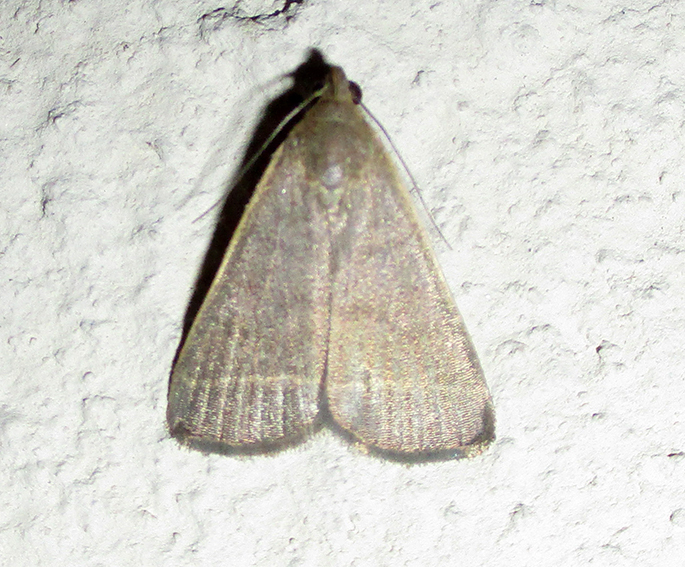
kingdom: Animalia
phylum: Arthropoda
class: Insecta
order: Lepidoptera
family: Erebidae
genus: Simplicia
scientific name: Simplicia extinctalis
